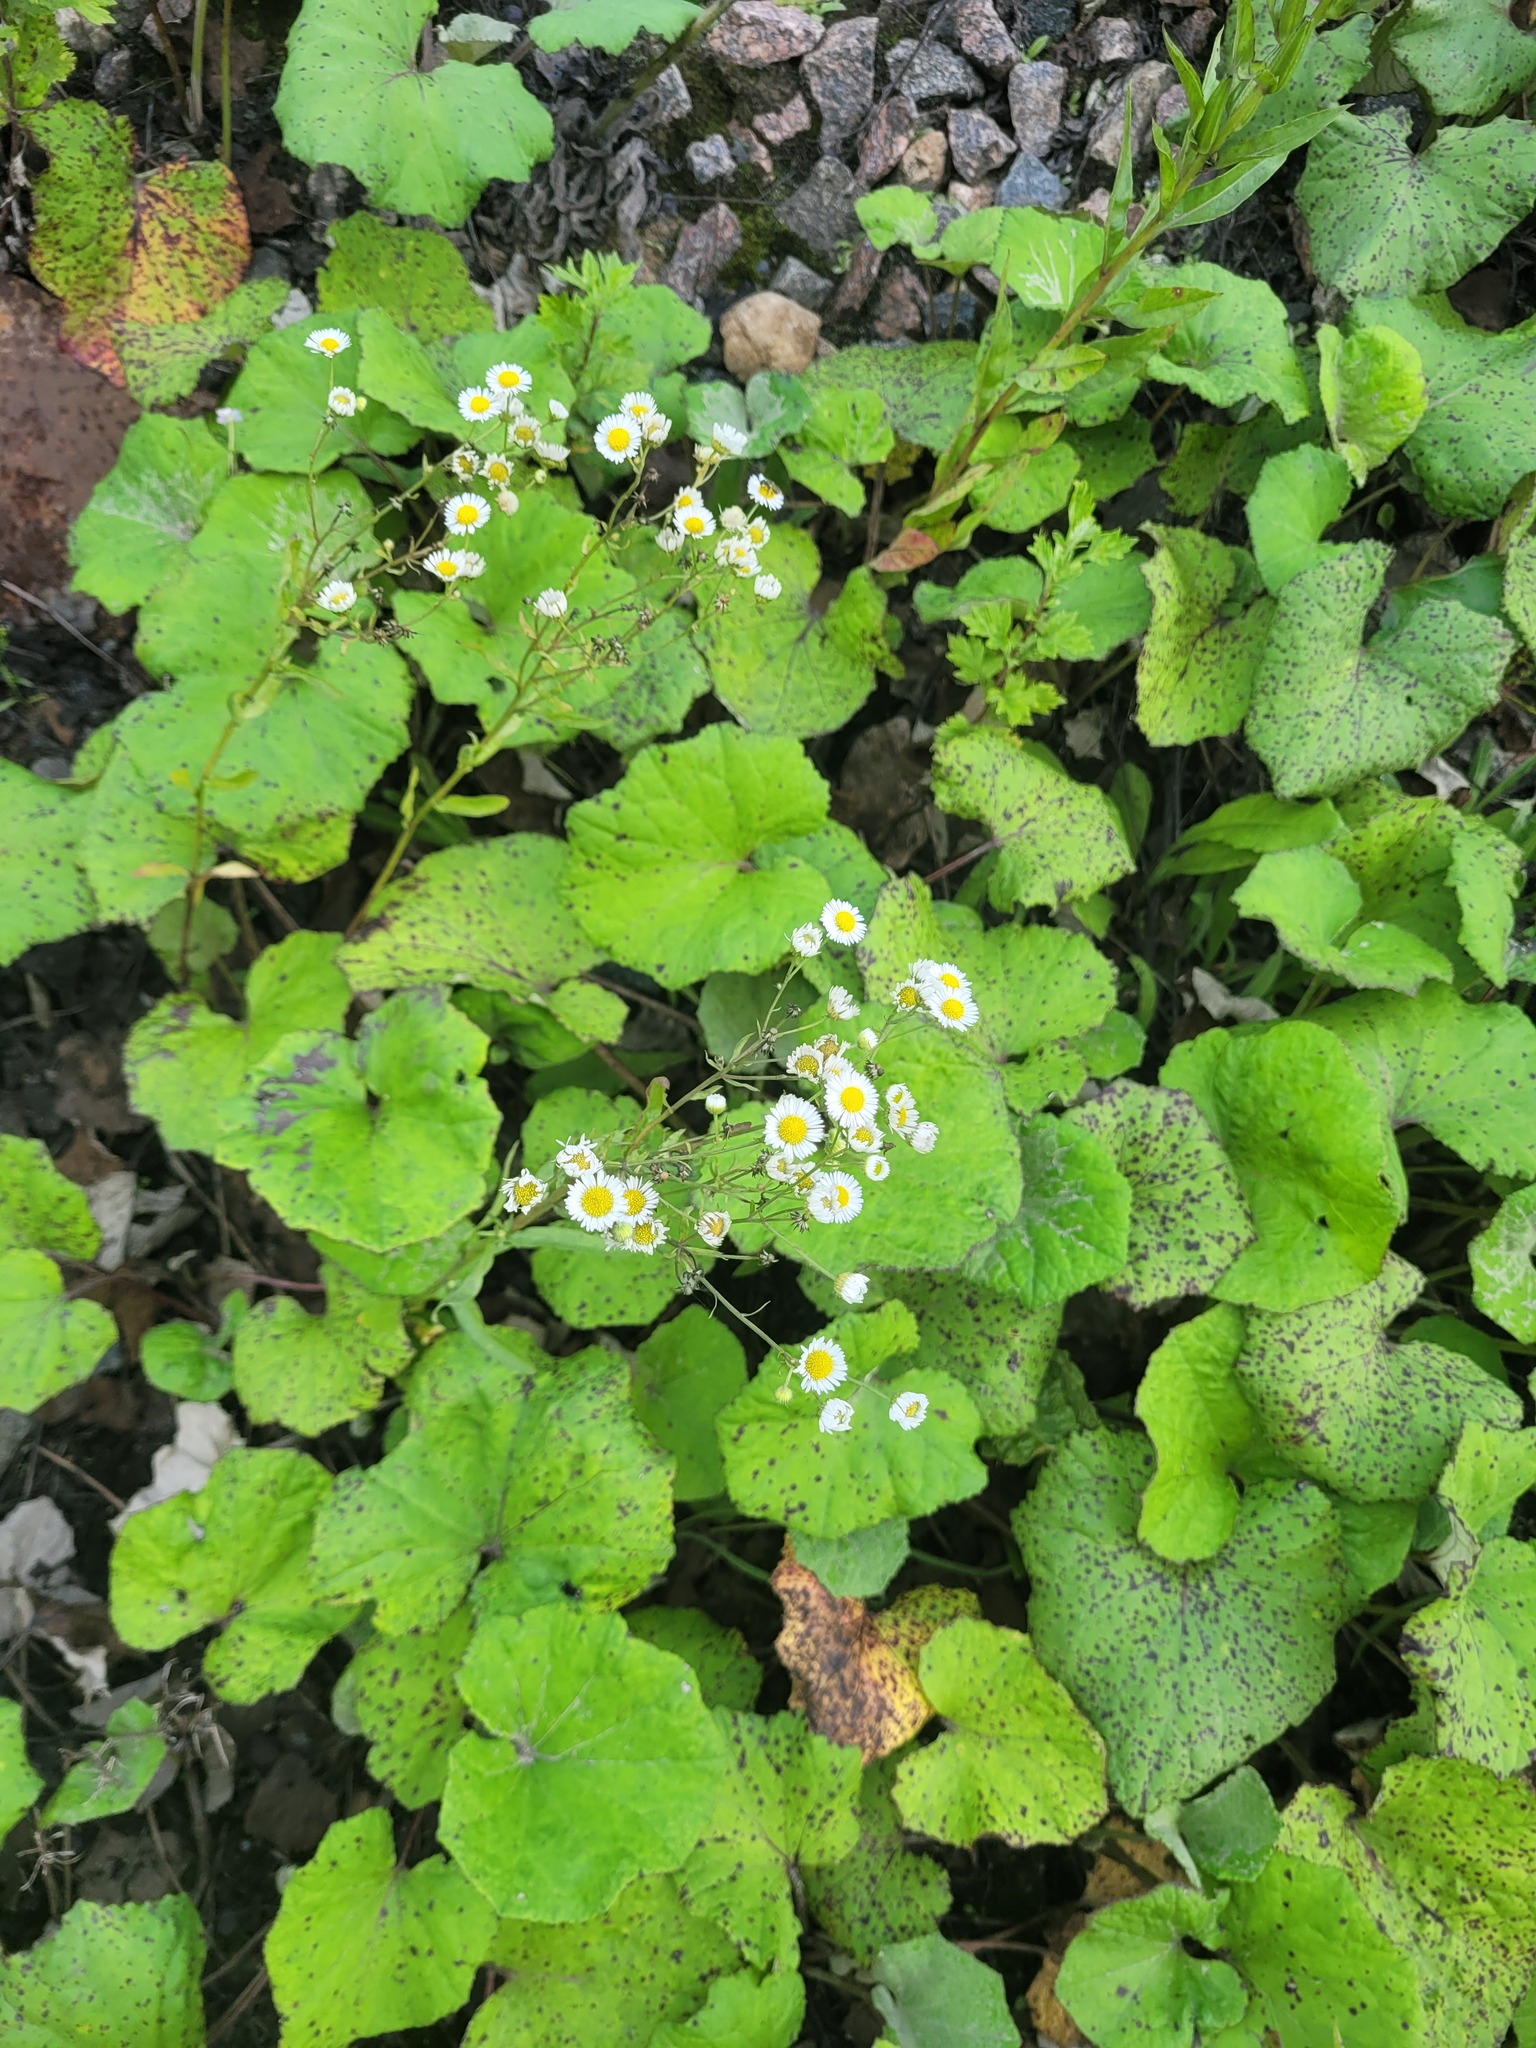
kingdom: Plantae
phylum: Tracheophyta
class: Magnoliopsida
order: Asterales
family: Asteraceae
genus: Erigeron
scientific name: Erigeron annuus
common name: Tall fleabane
